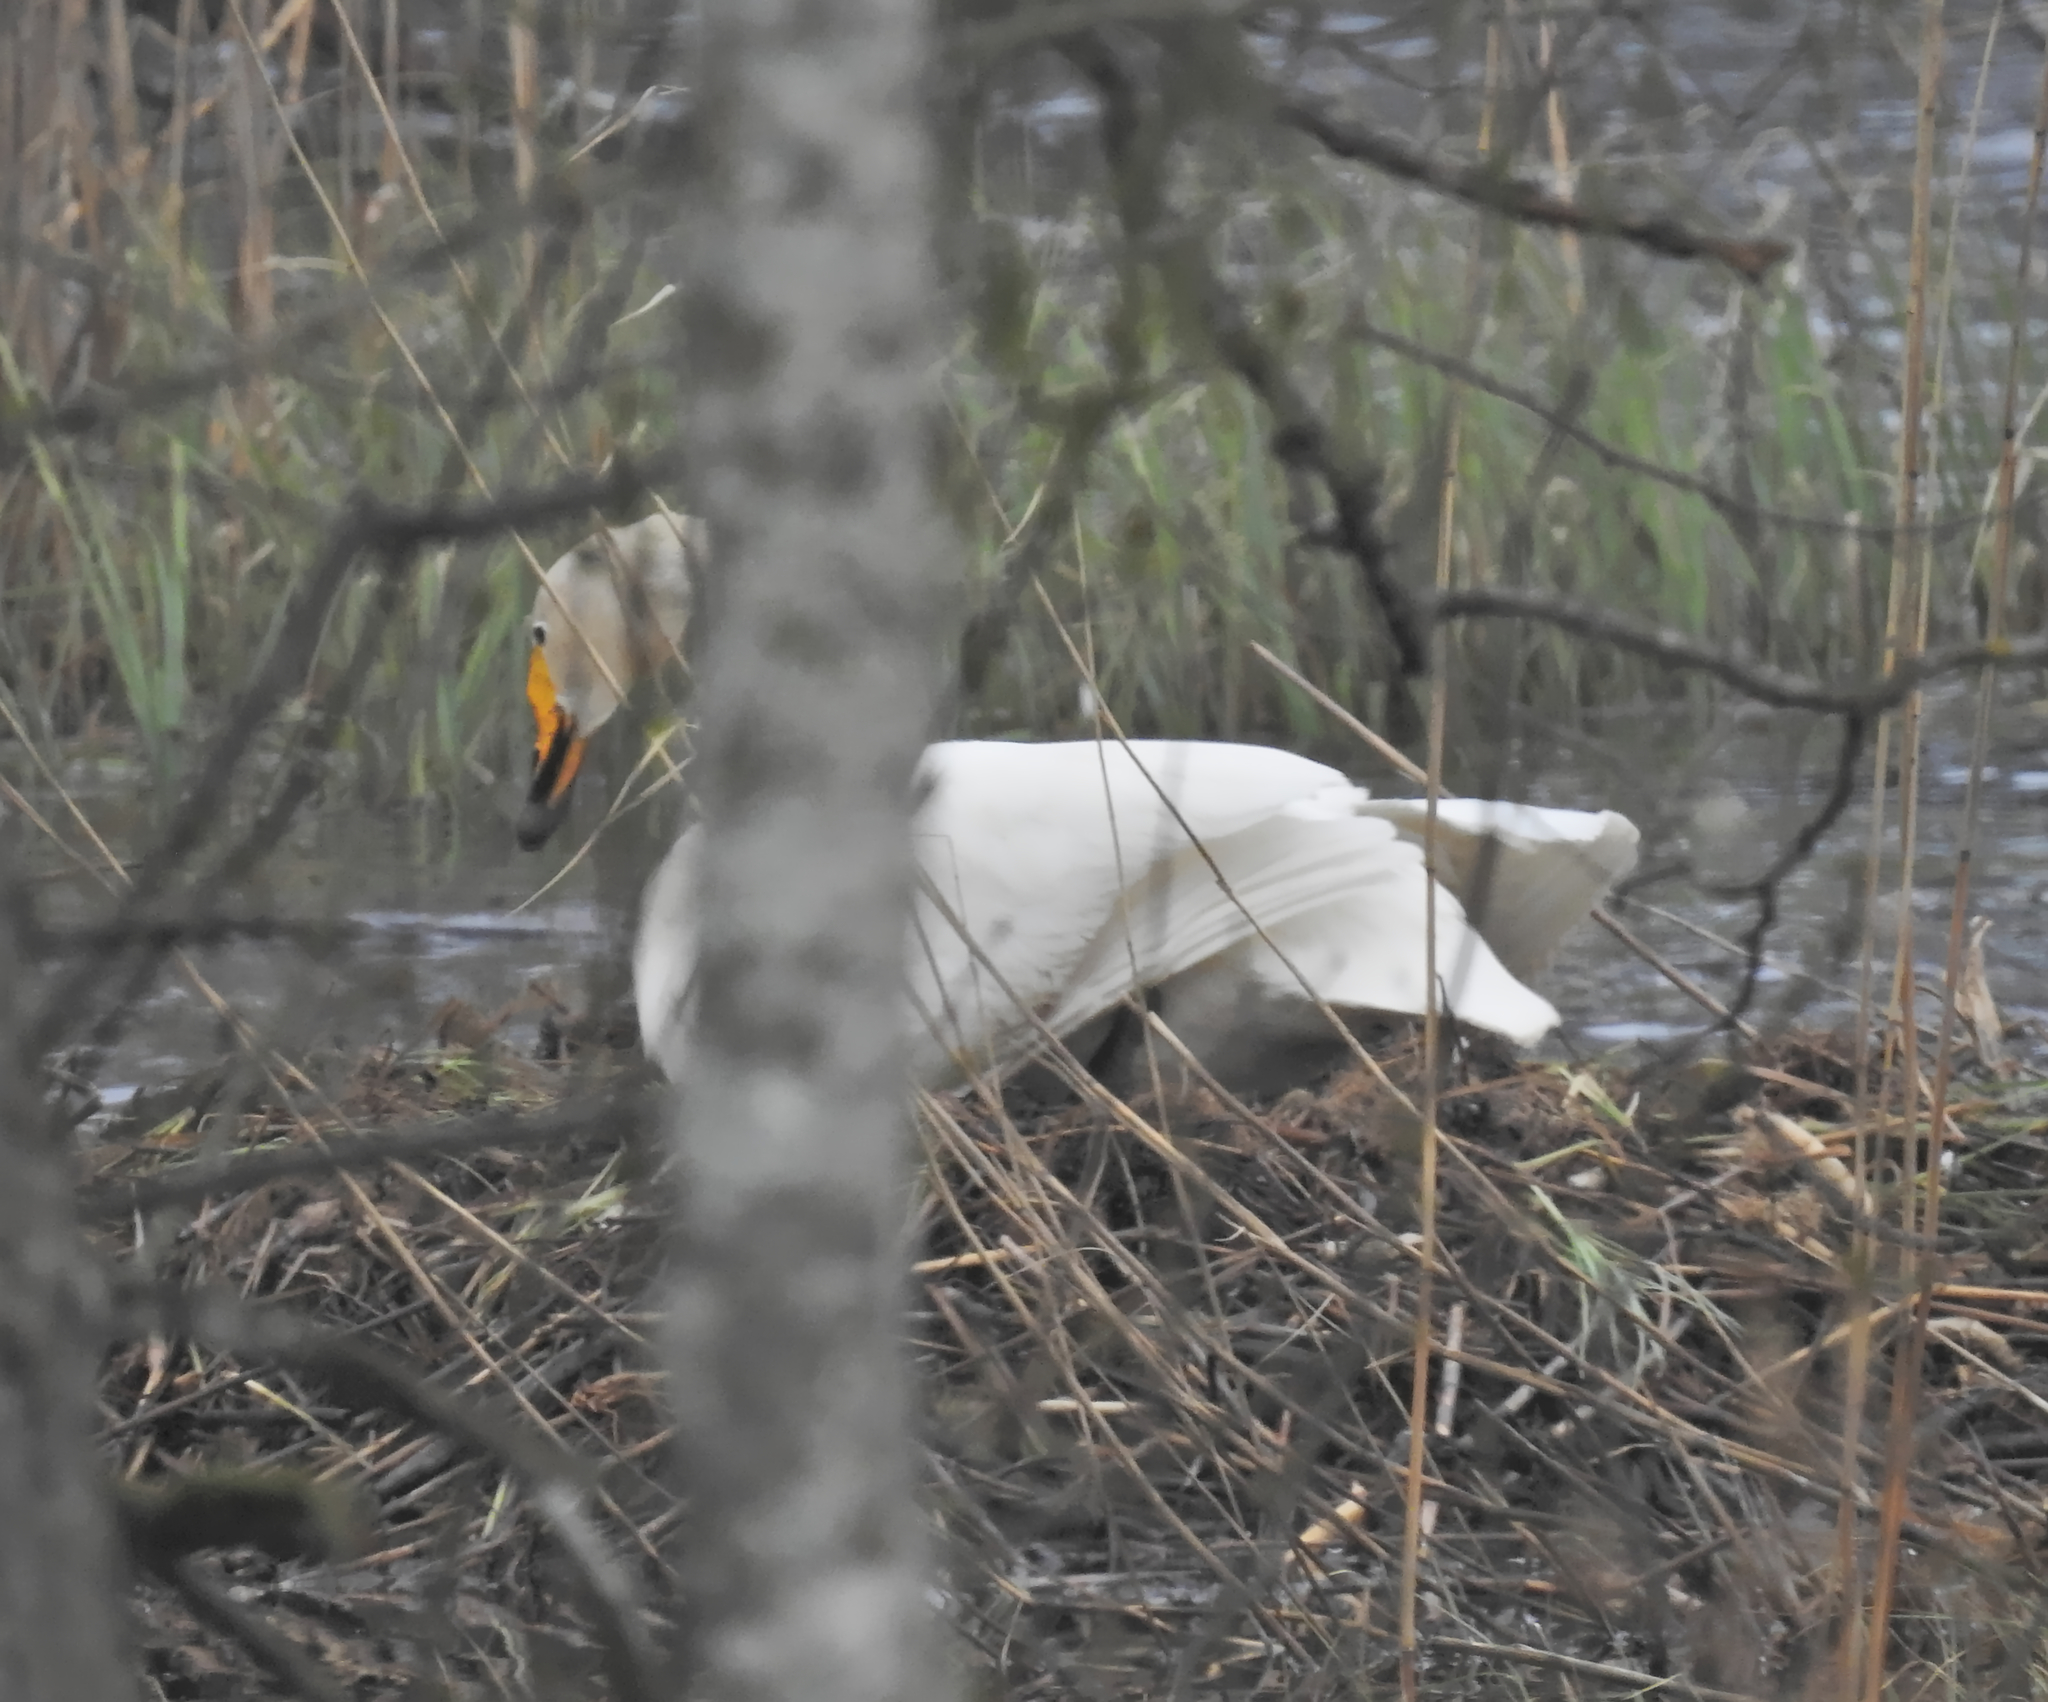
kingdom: Animalia
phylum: Chordata
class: Aves
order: Anseriformes
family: Anatidae
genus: Cygnus
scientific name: Cygnus cygnus
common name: Whooper swan
